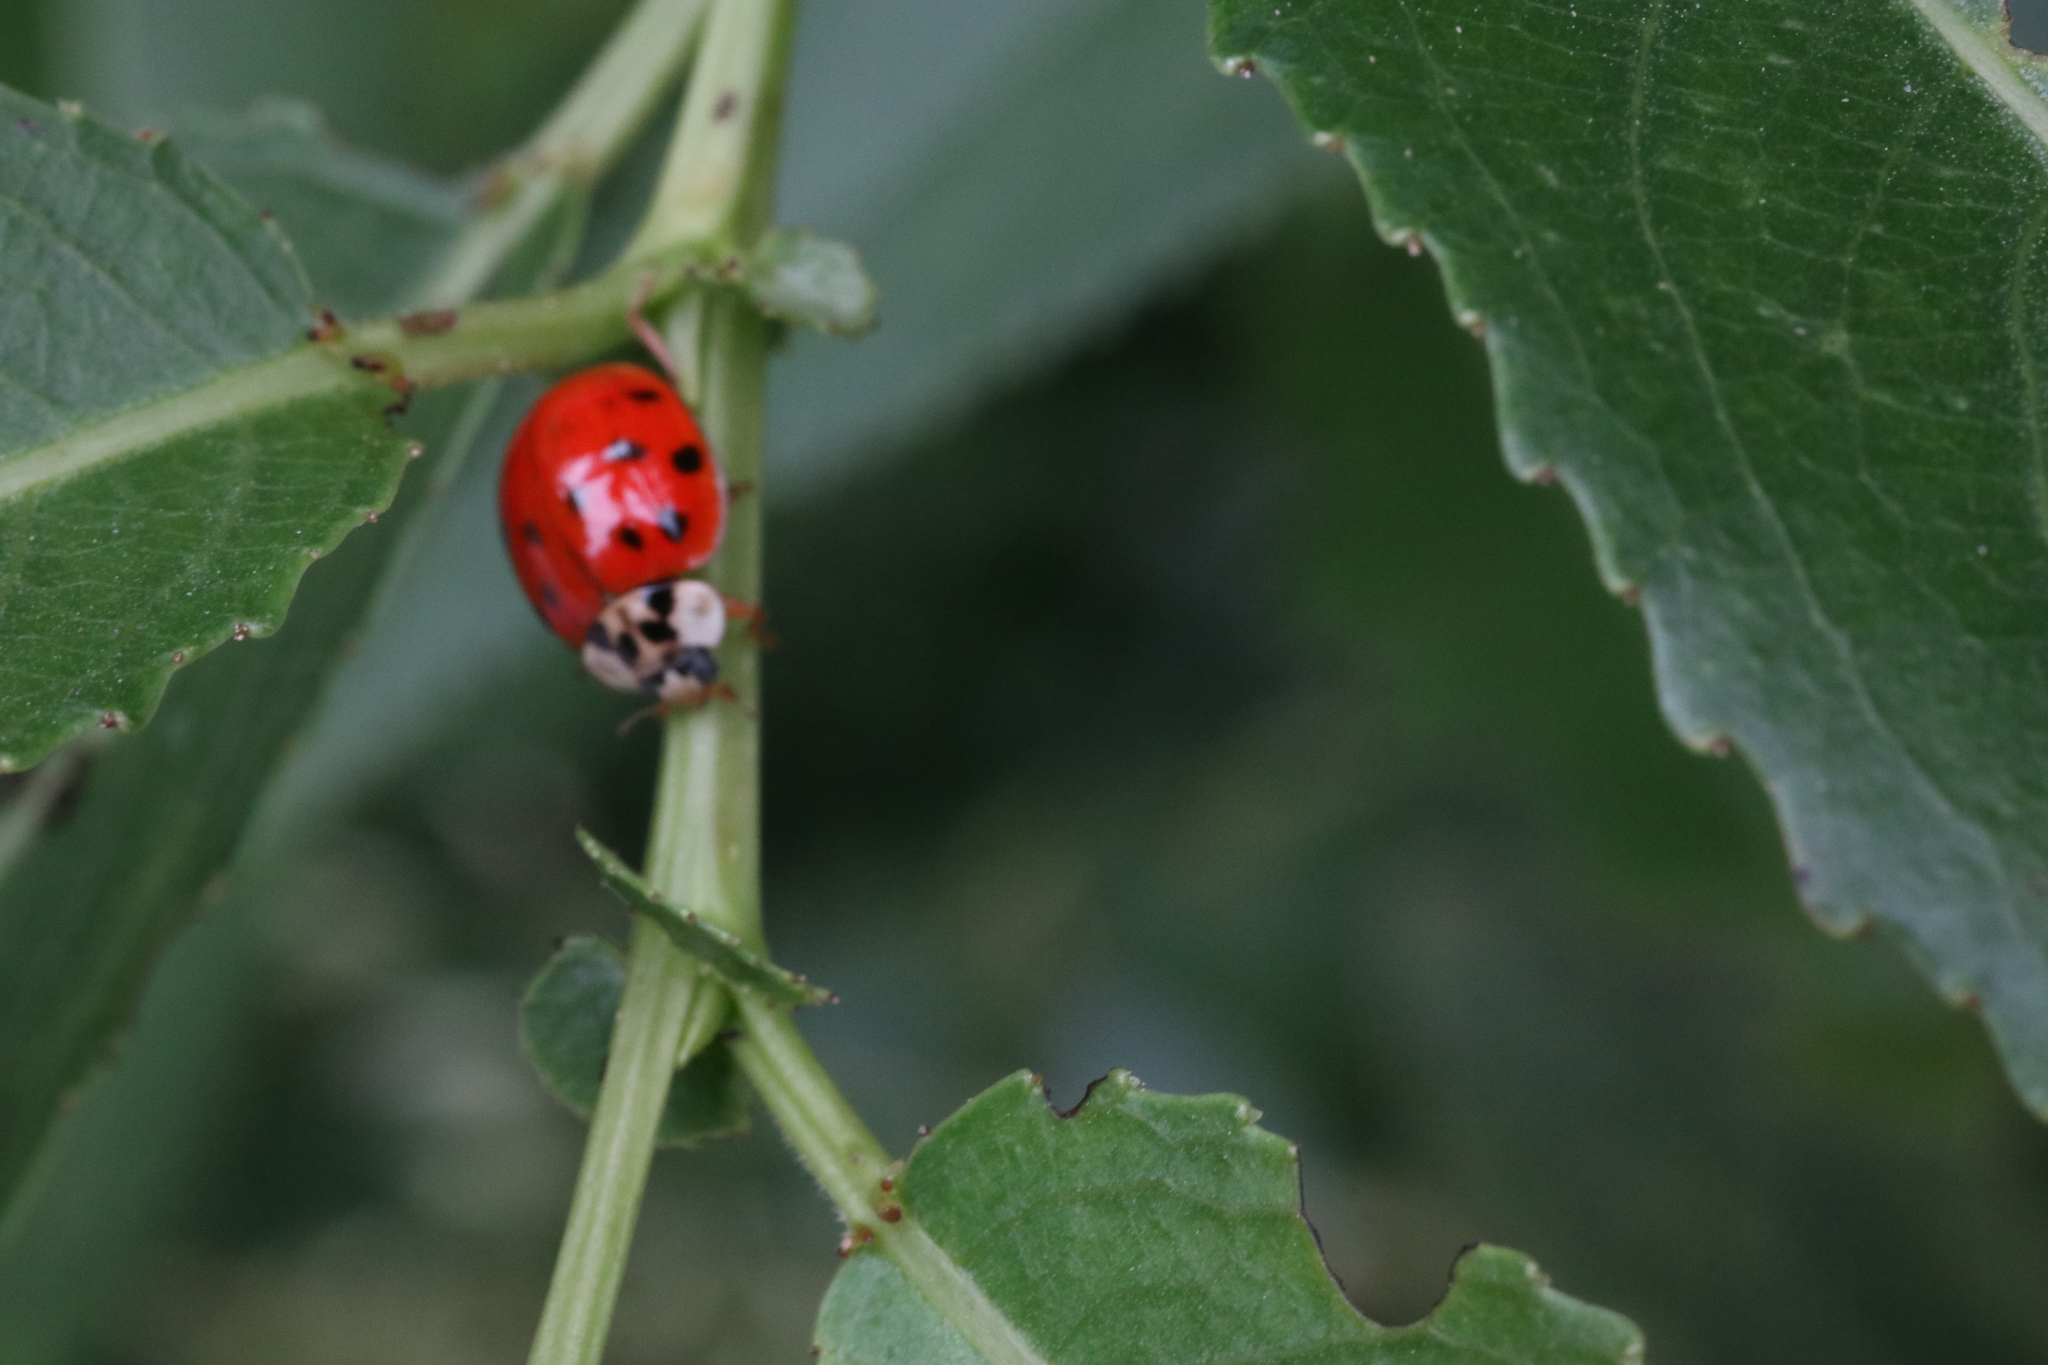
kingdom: Animalia
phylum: Arthropoda
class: Insecta
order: Coleoptera
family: Coccinellidae
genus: Harmonia
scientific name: Harmonia axyridis
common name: Harlequin ladybird
